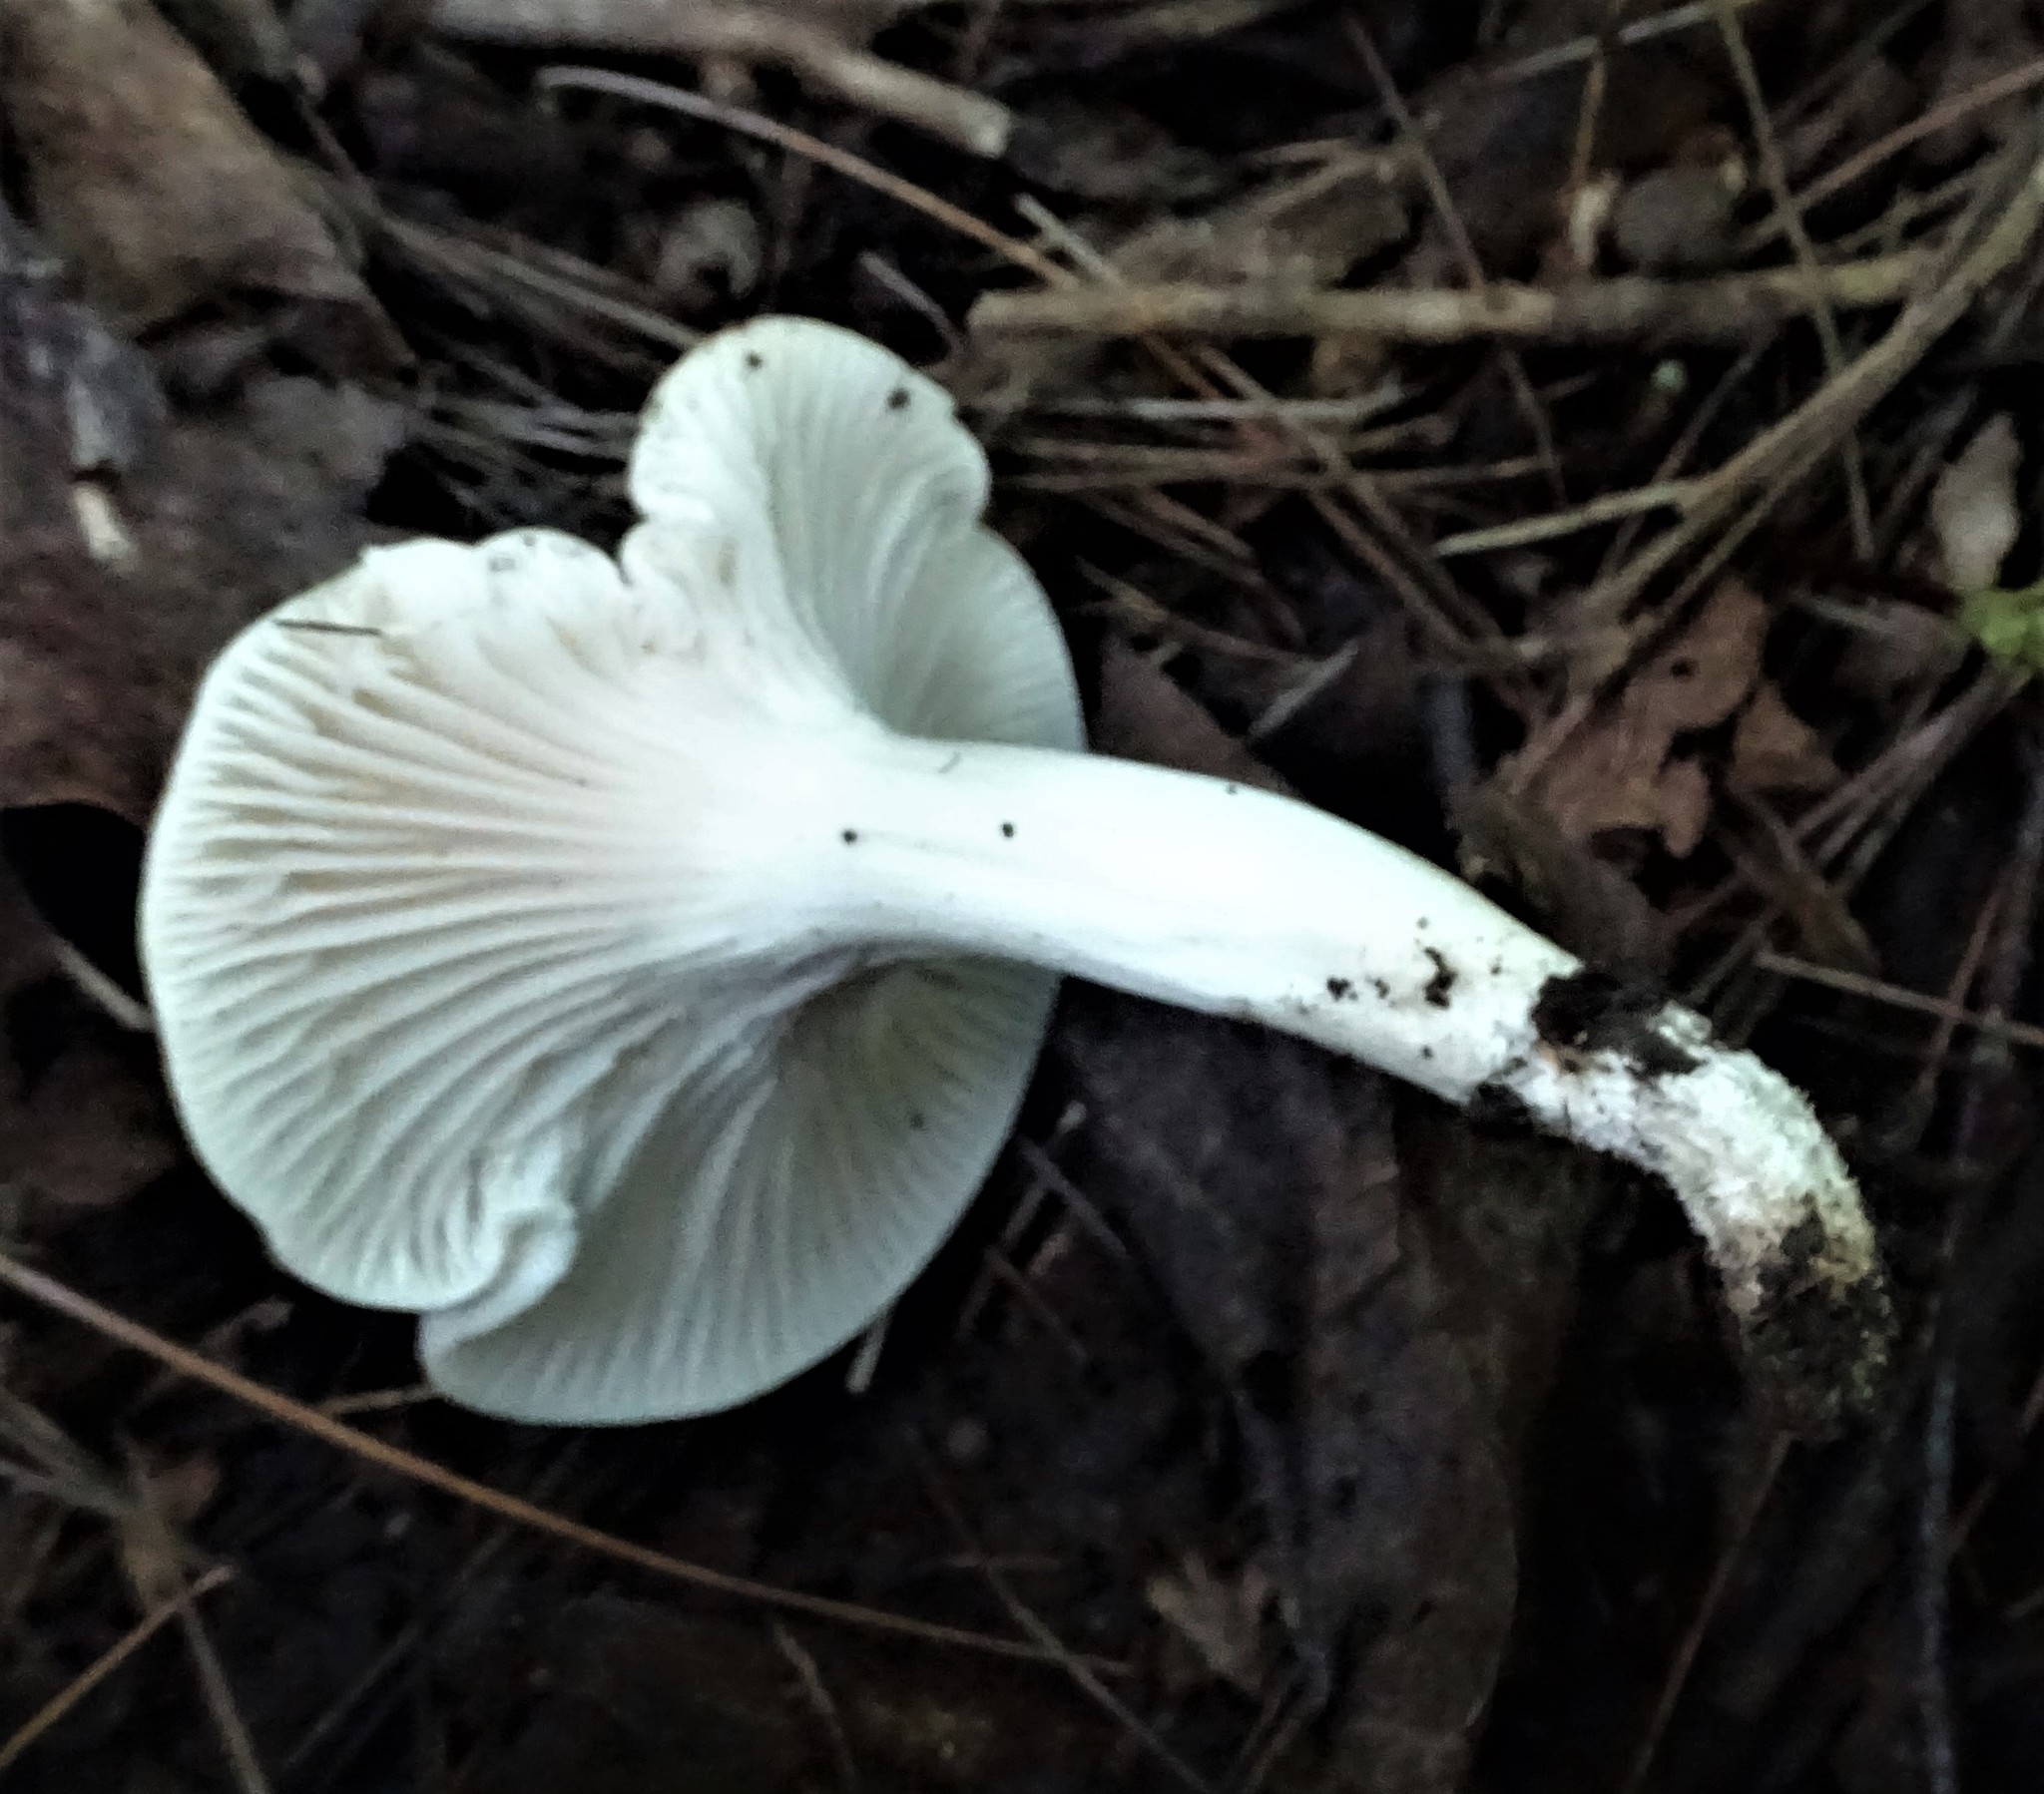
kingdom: Fungi
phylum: Basidiomycota
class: Agaricomycetes
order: Agaricales
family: Entolomataceae
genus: Clitopilus
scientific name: Clitopilus prunulus
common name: The miller
